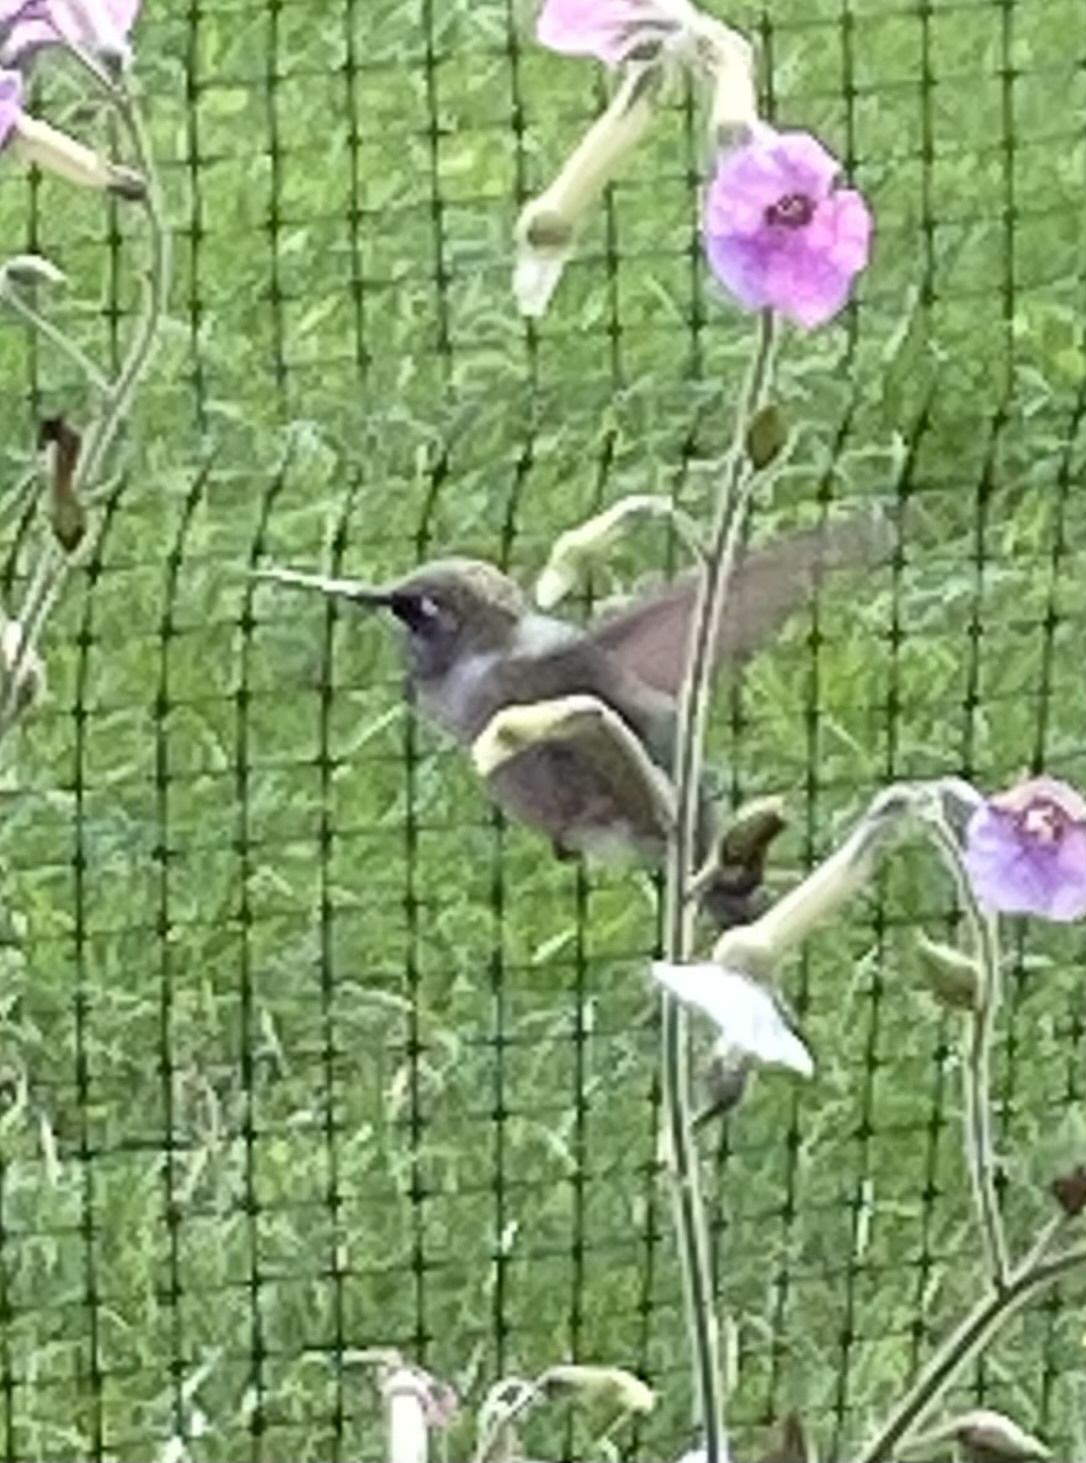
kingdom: Animalia
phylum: Chordata
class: Aves
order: Apodiformes
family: Trochilidae
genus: Archilochus
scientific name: Archilochus colubris
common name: Ruby-throated hummingbird
